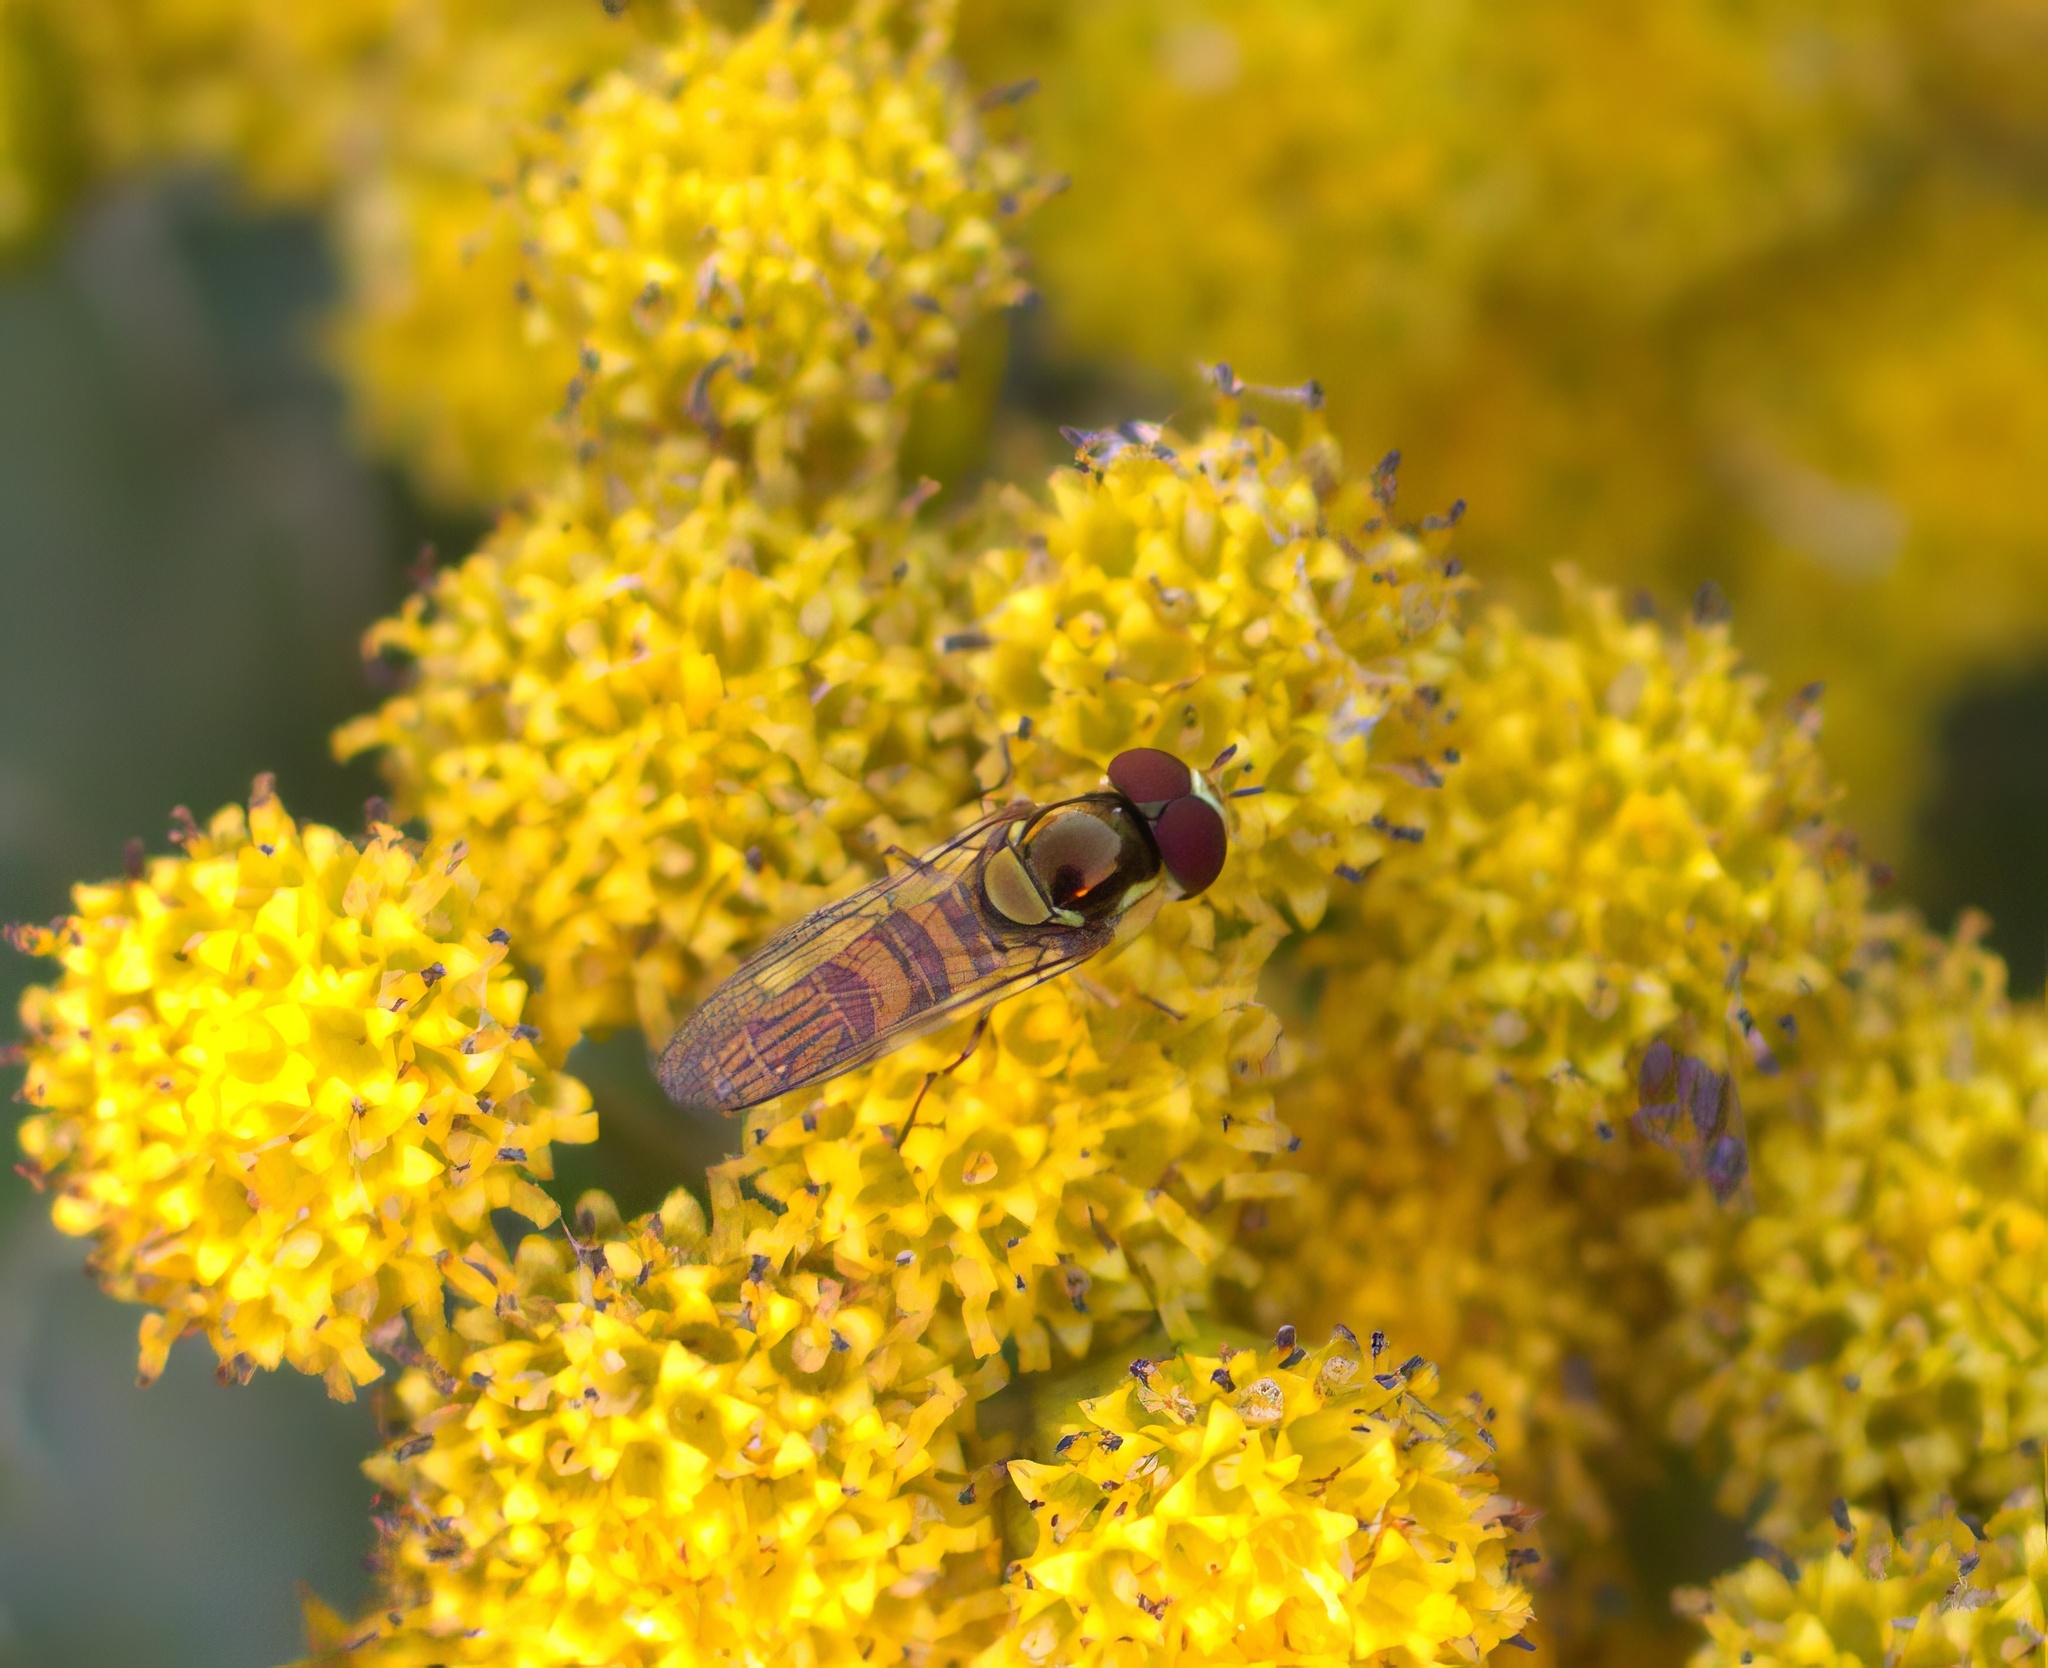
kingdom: Animalia
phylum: Arthropoda
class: Insecta
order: Diptera
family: Syrphidae
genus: Allograpta
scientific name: Allograpta obliqua
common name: Common oblique syrphid
